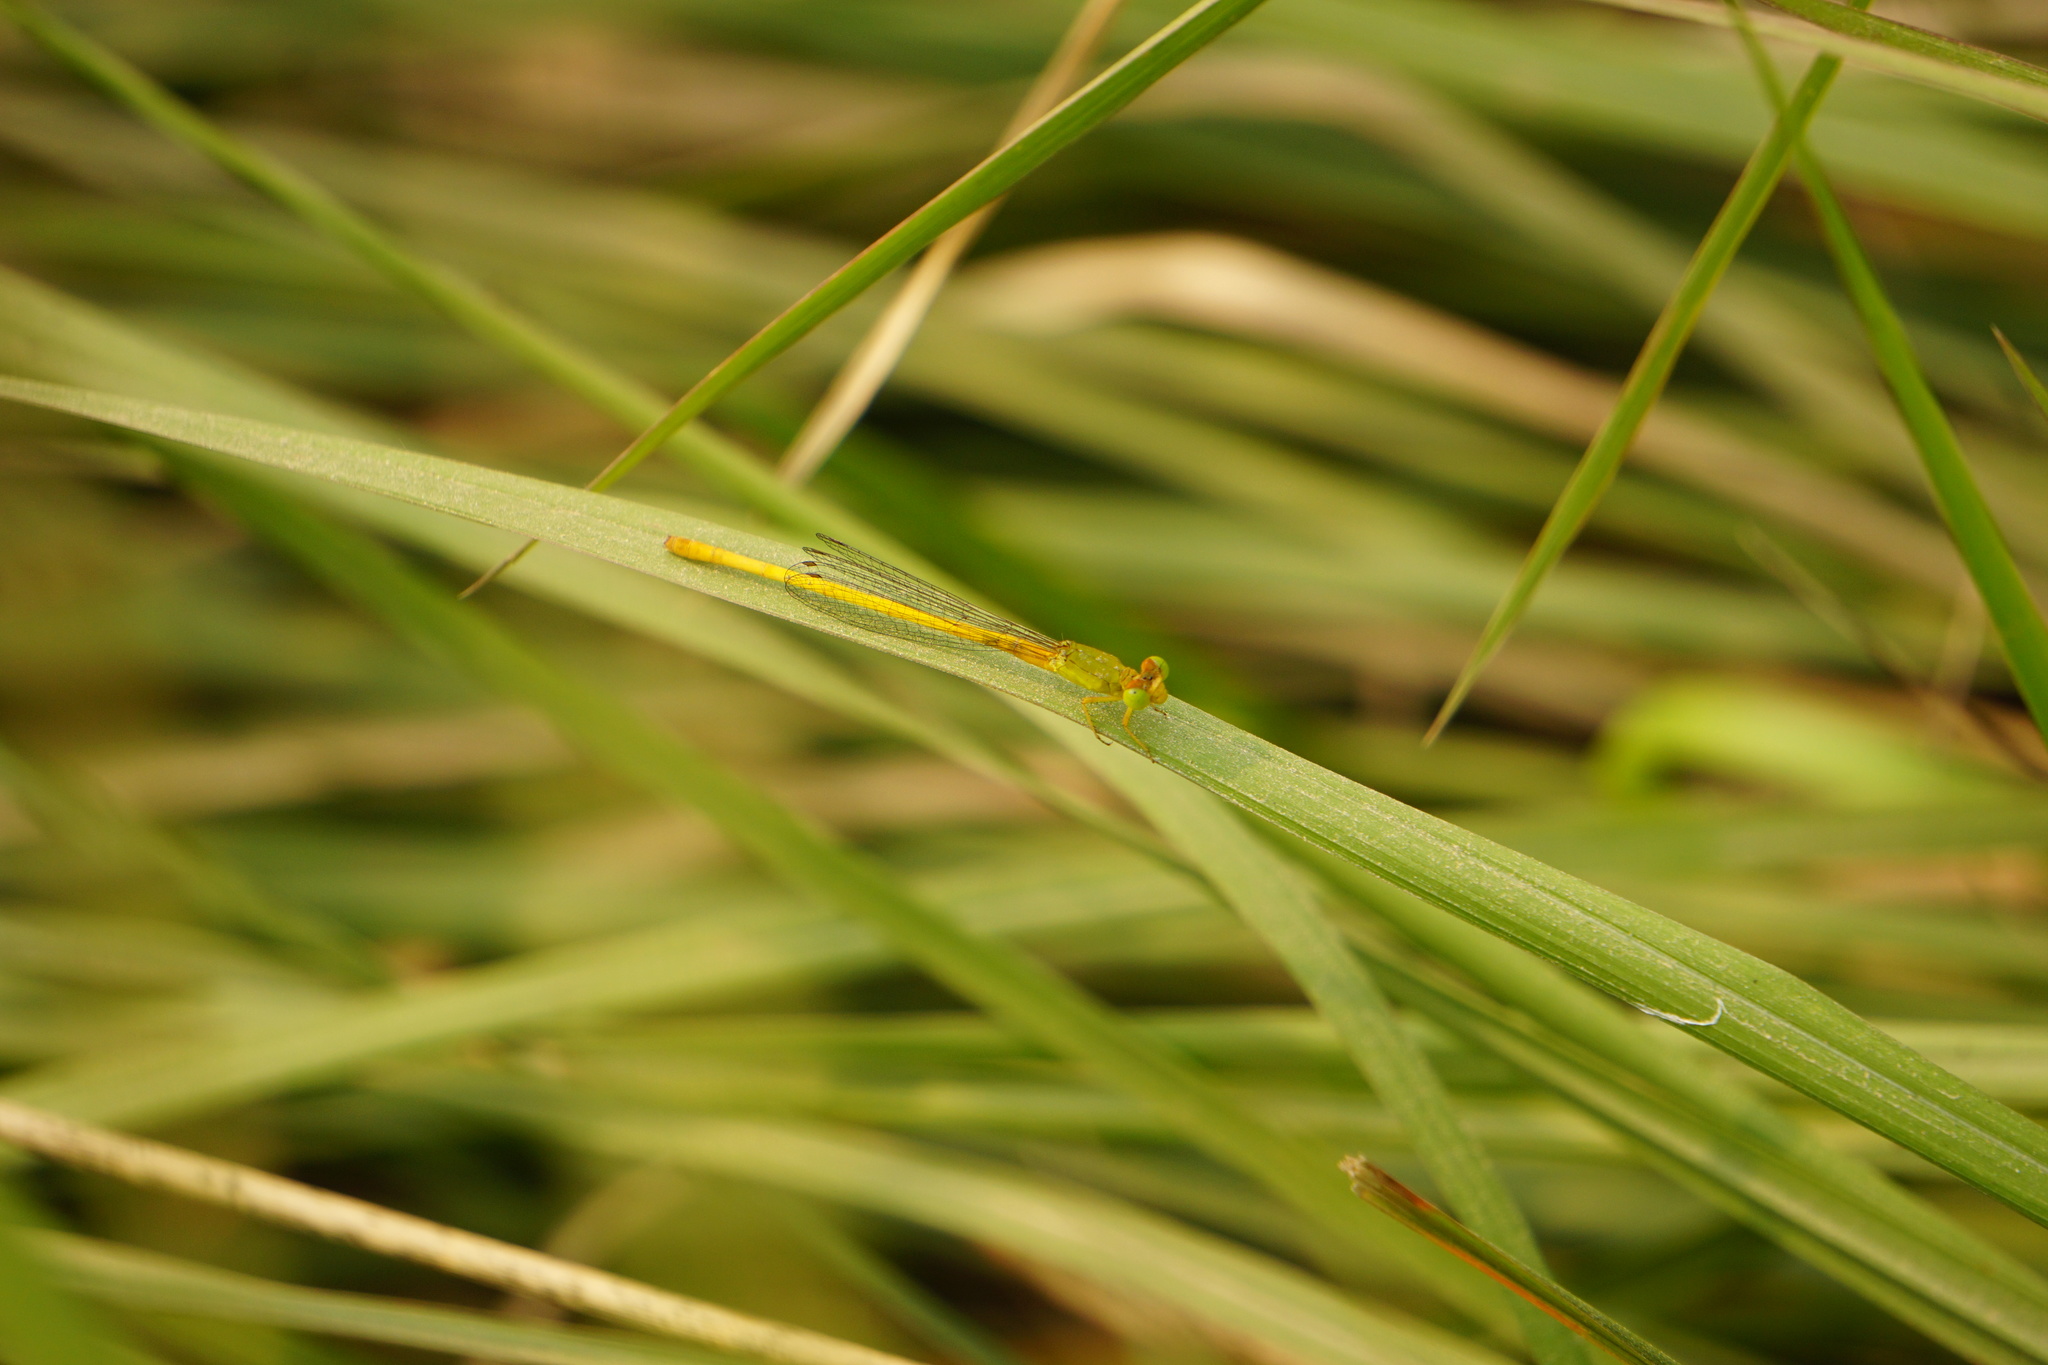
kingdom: Animalia
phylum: Arthropoda
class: Insecta
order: Odonata
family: Coenagrionidae
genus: Ceriagrion
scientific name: Ceriagrion coromandelianum
